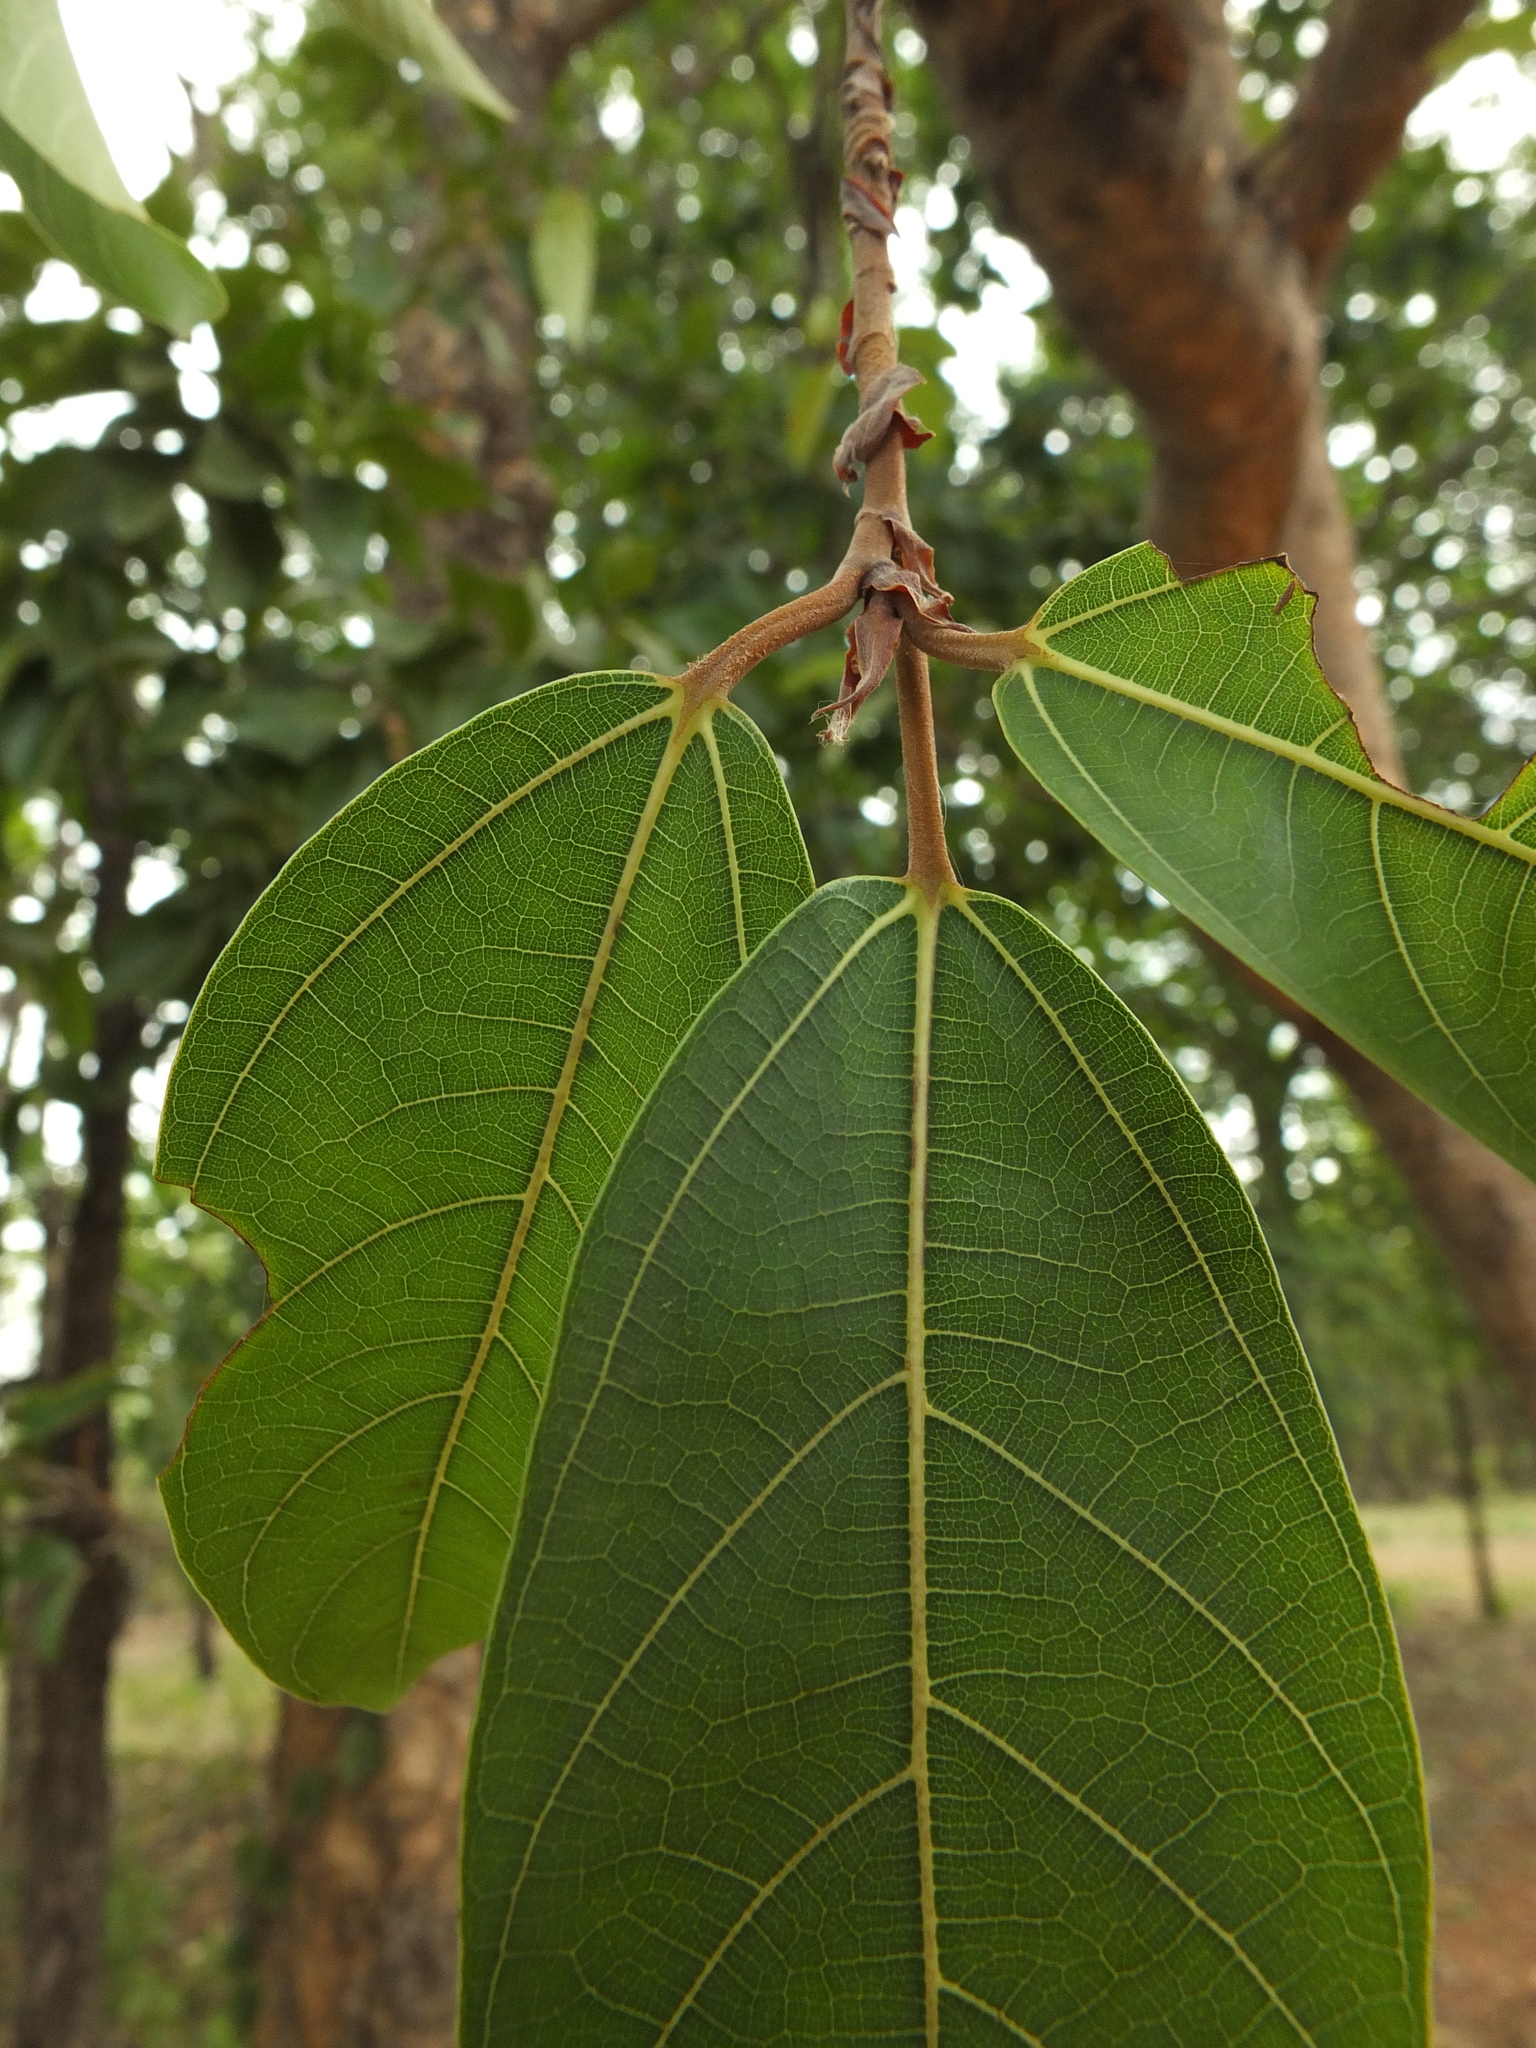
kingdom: Plantae
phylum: Tracheophyta
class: Magnoliopsida
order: Rosales
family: Moraceae
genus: Ficus
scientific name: Ficus racemosa
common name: Cluster fig
